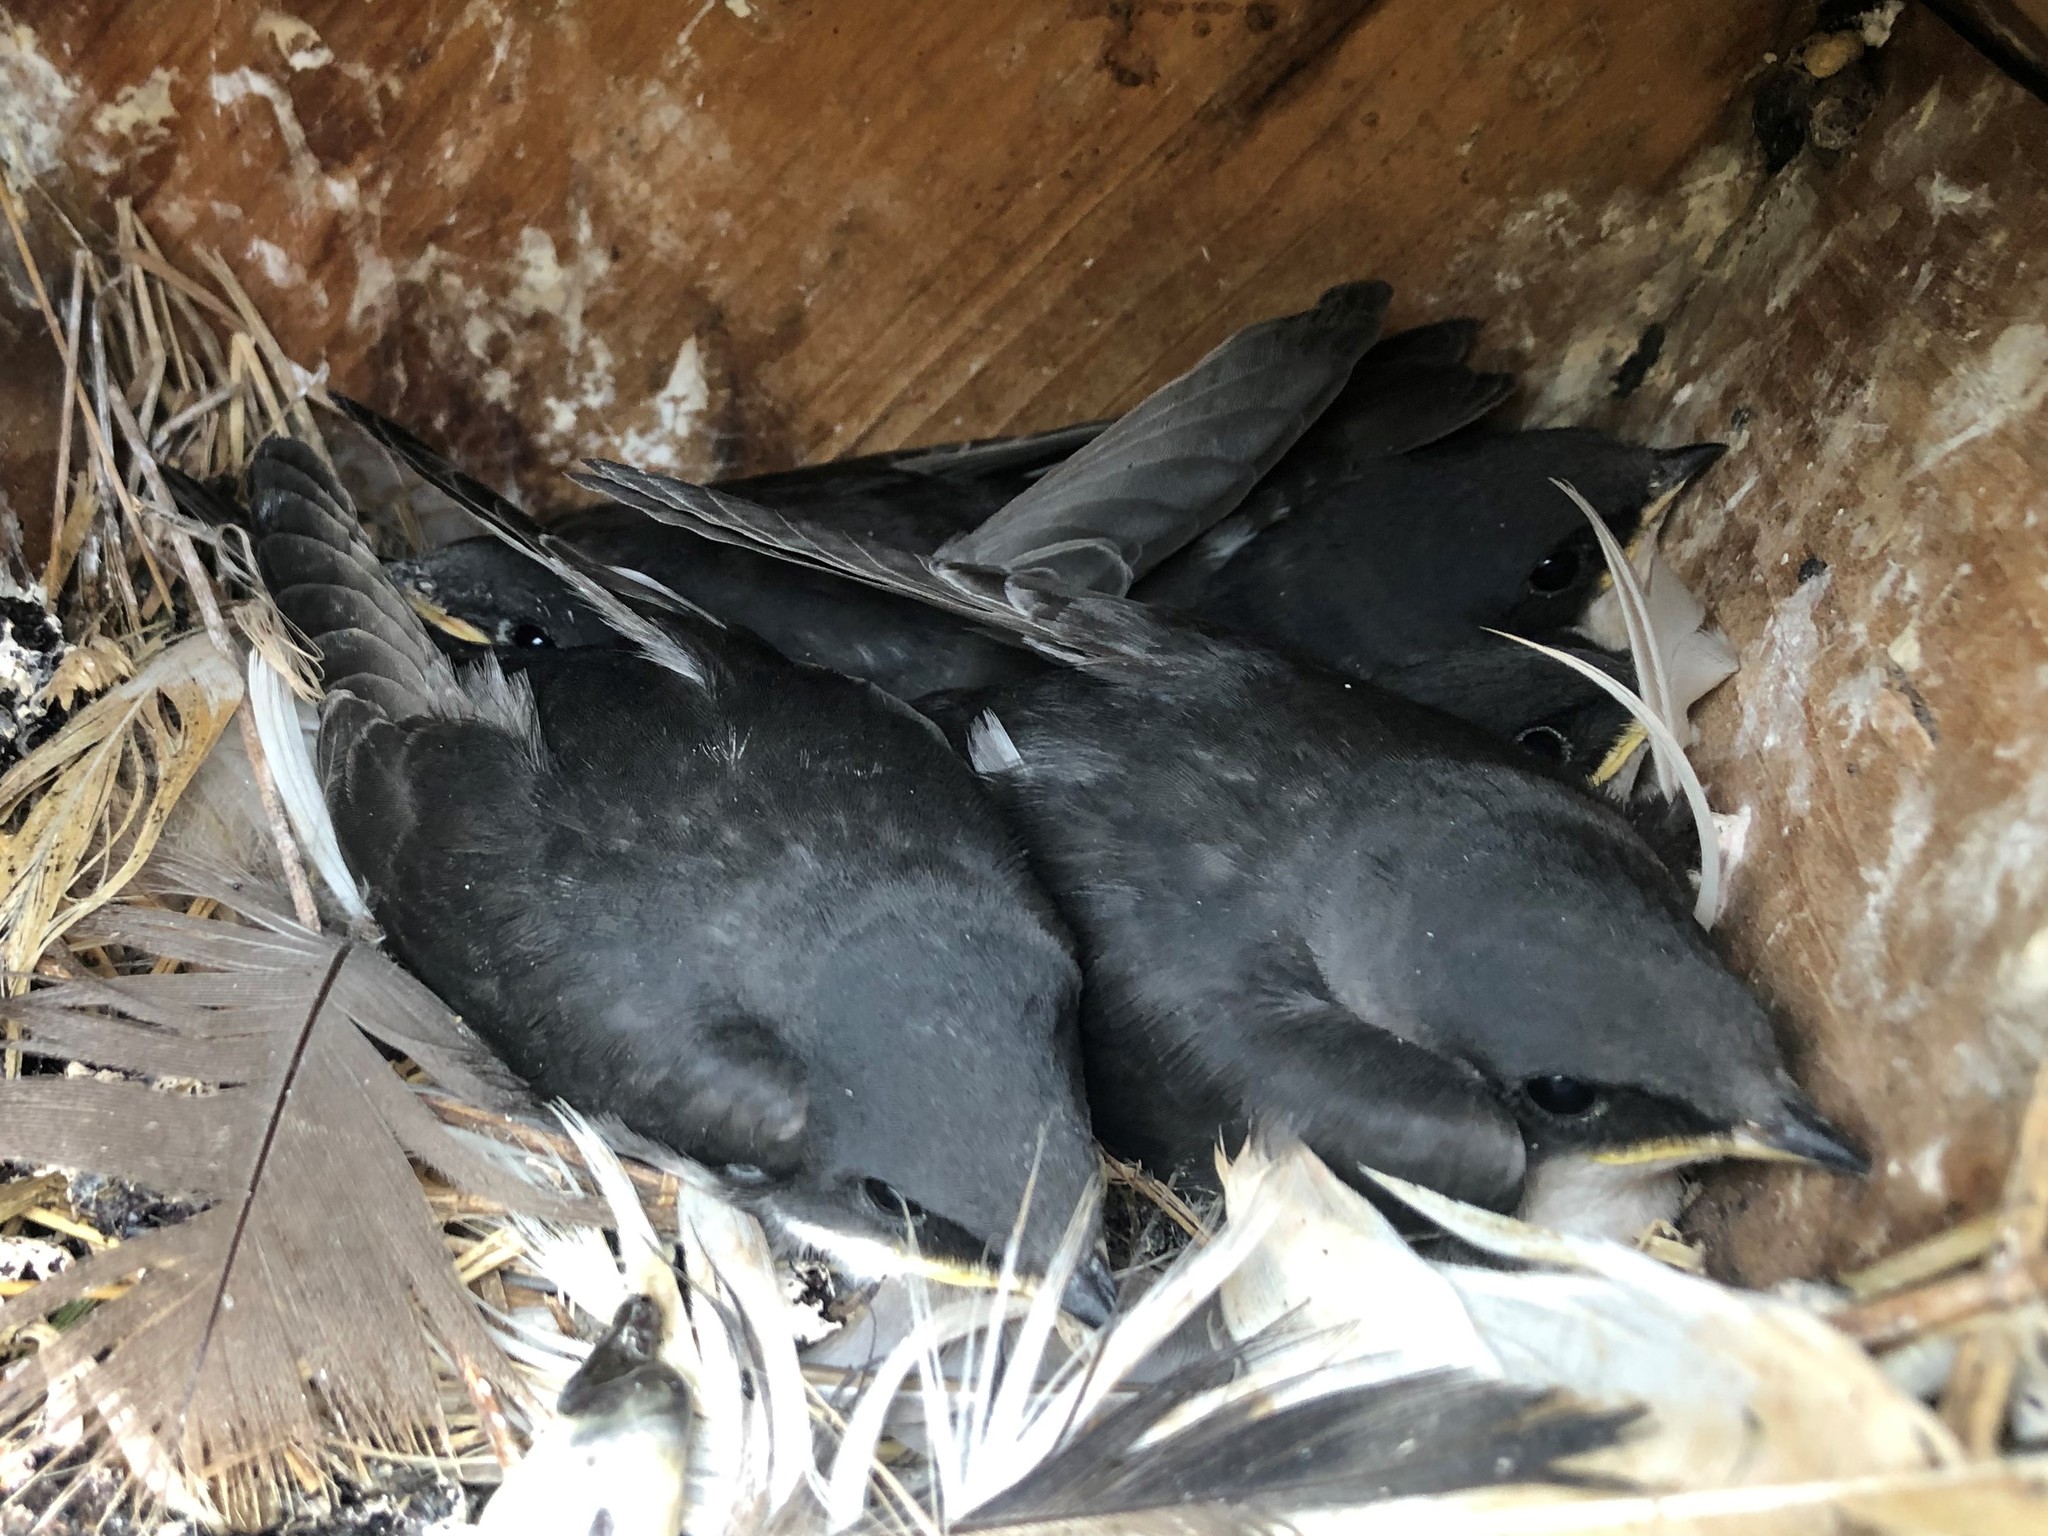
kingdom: Animalia
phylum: Chordata
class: Aves
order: Passeriformes
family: Hirundinidae
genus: Tachycineta
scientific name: Tachycineta bicolor
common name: Tree swallow
